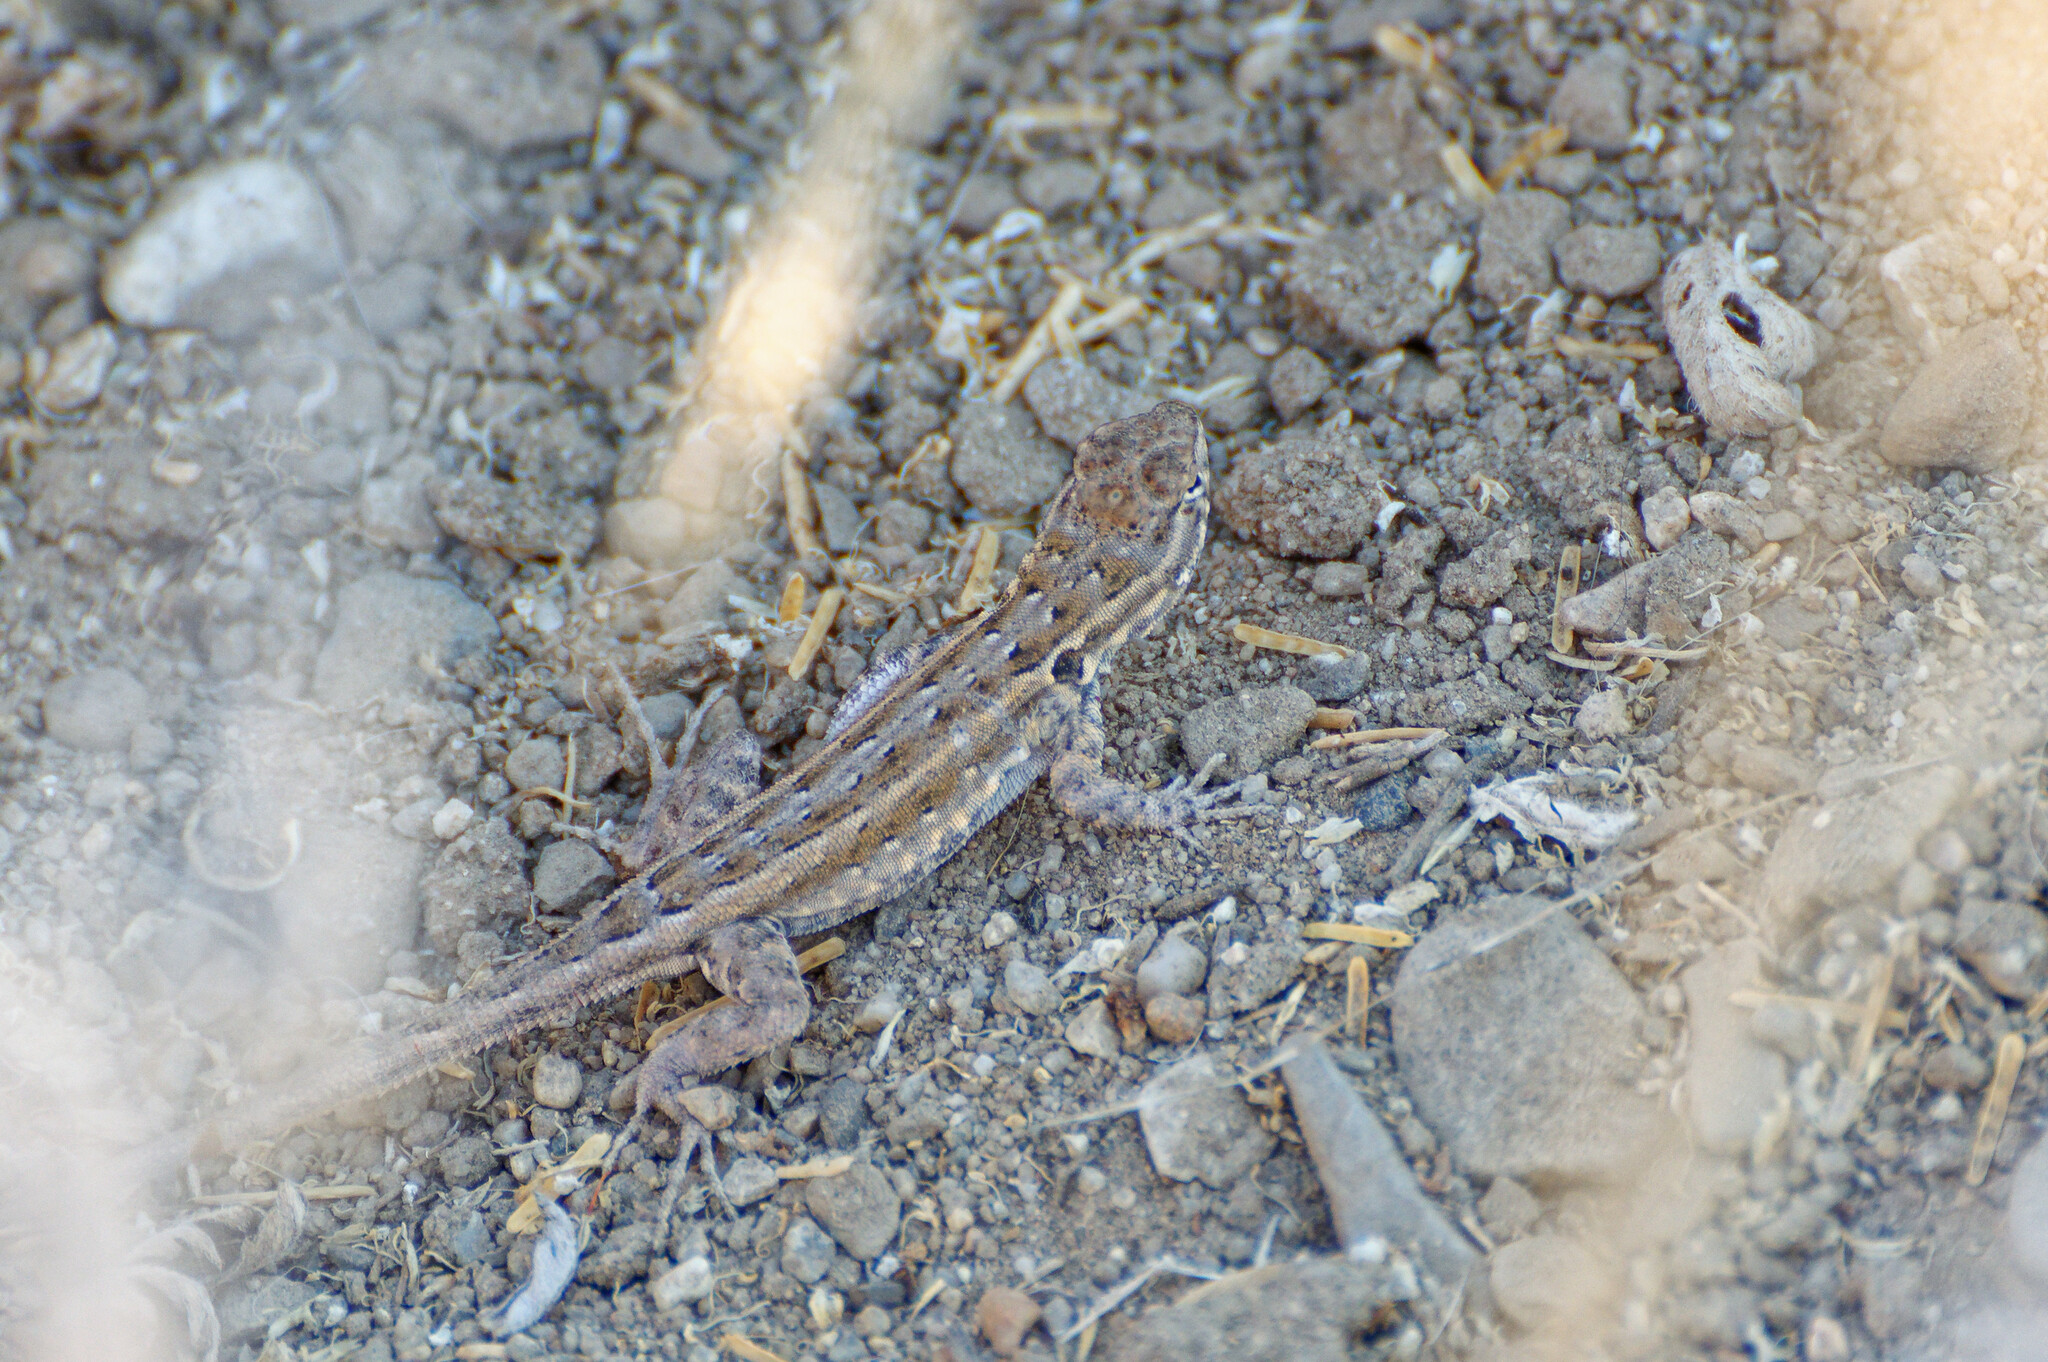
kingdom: Animalia
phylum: Chordata
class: Squamata
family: Phrynosomatidae
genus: Uta
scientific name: Uta stansburiana
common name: Side-blotched lizard
